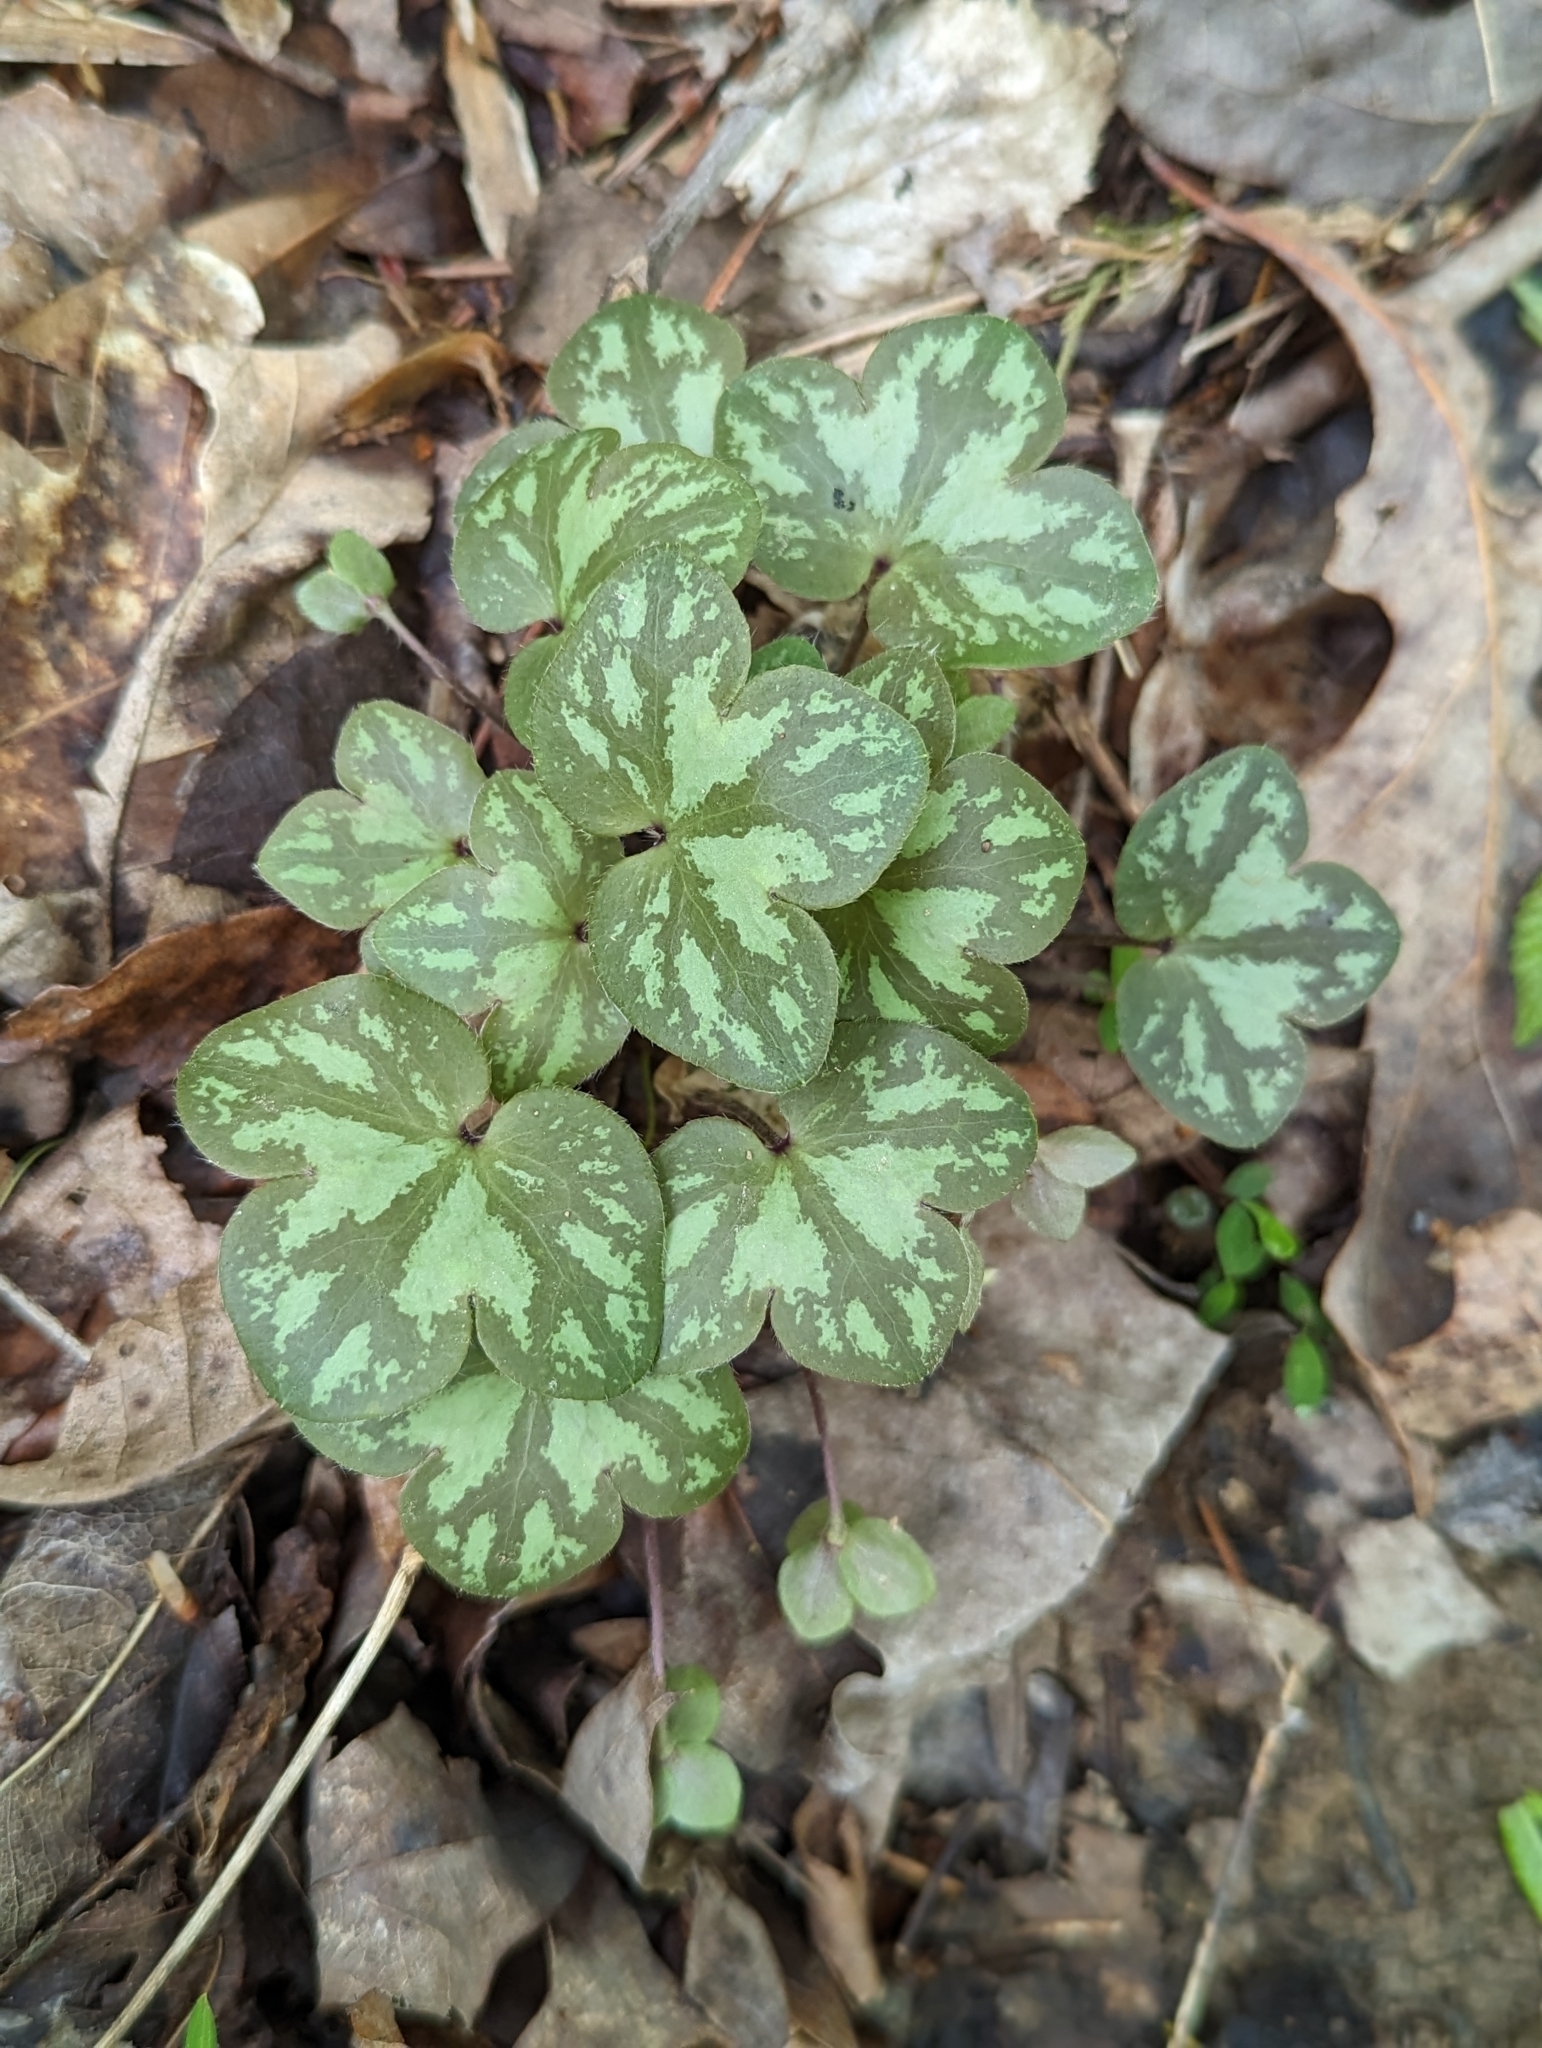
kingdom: Plantae
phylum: Tracheophyta
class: Magnoliopsida
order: Ranunculales
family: Ranunculaceae
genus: Hepatica
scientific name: Hepatica americana
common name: American hepatica
